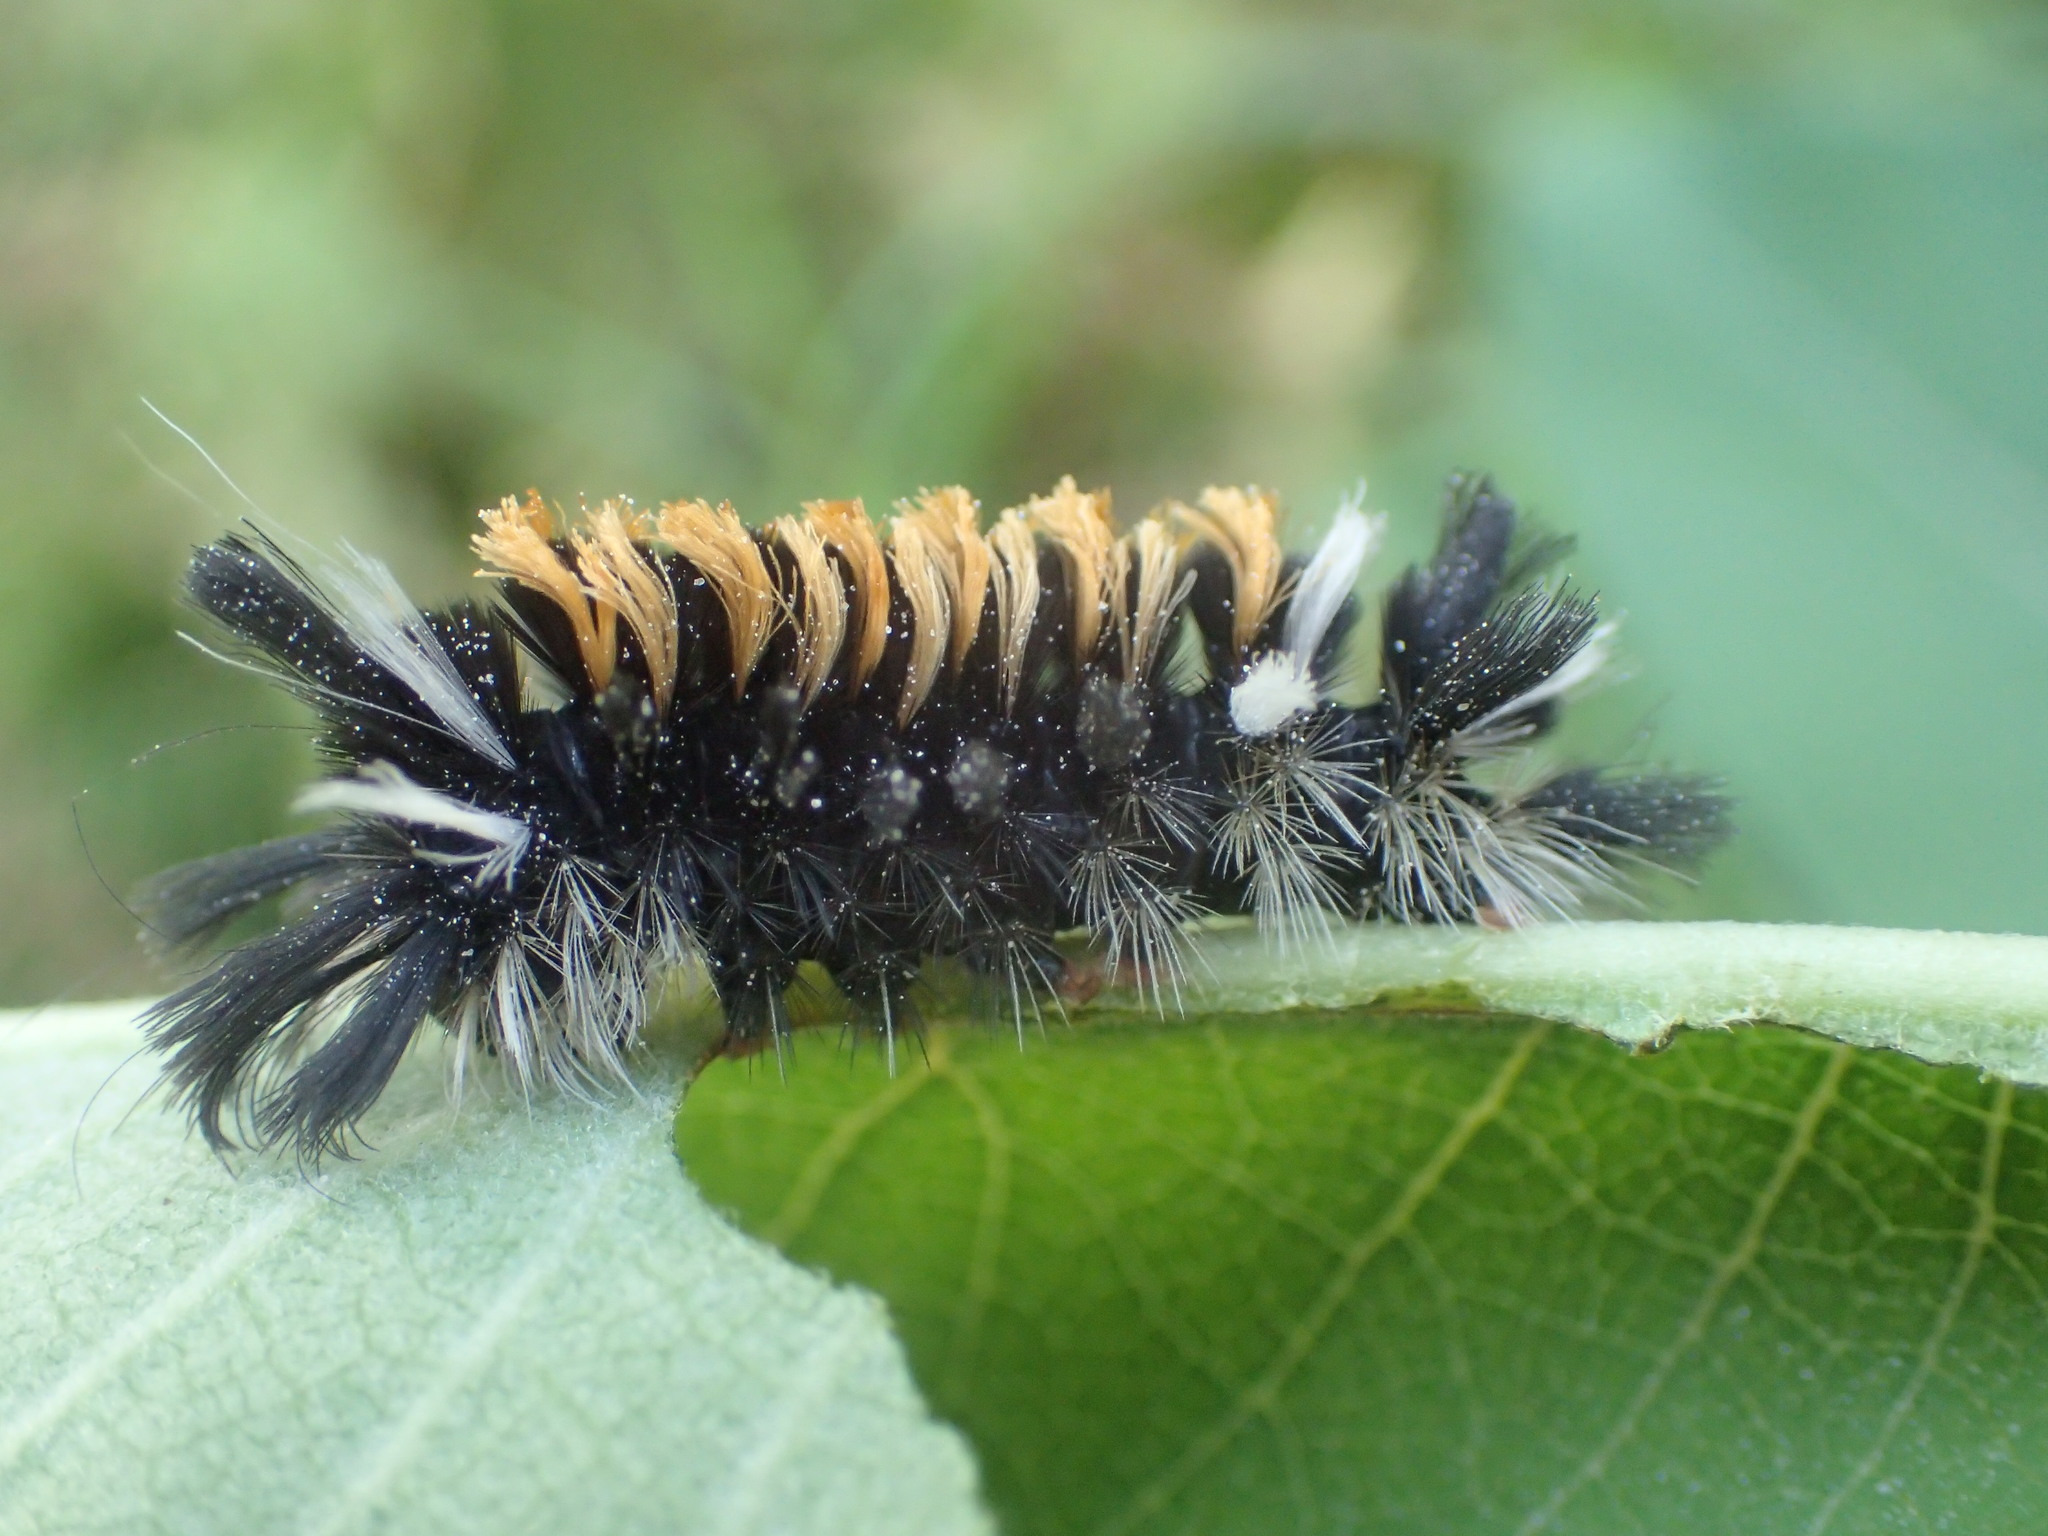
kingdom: Animalia
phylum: Arthropoda
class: Insecta
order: Lepidoptera
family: Erebidae
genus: Euchaetes
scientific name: Euchaetes egle
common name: Milkweed tussock moth
